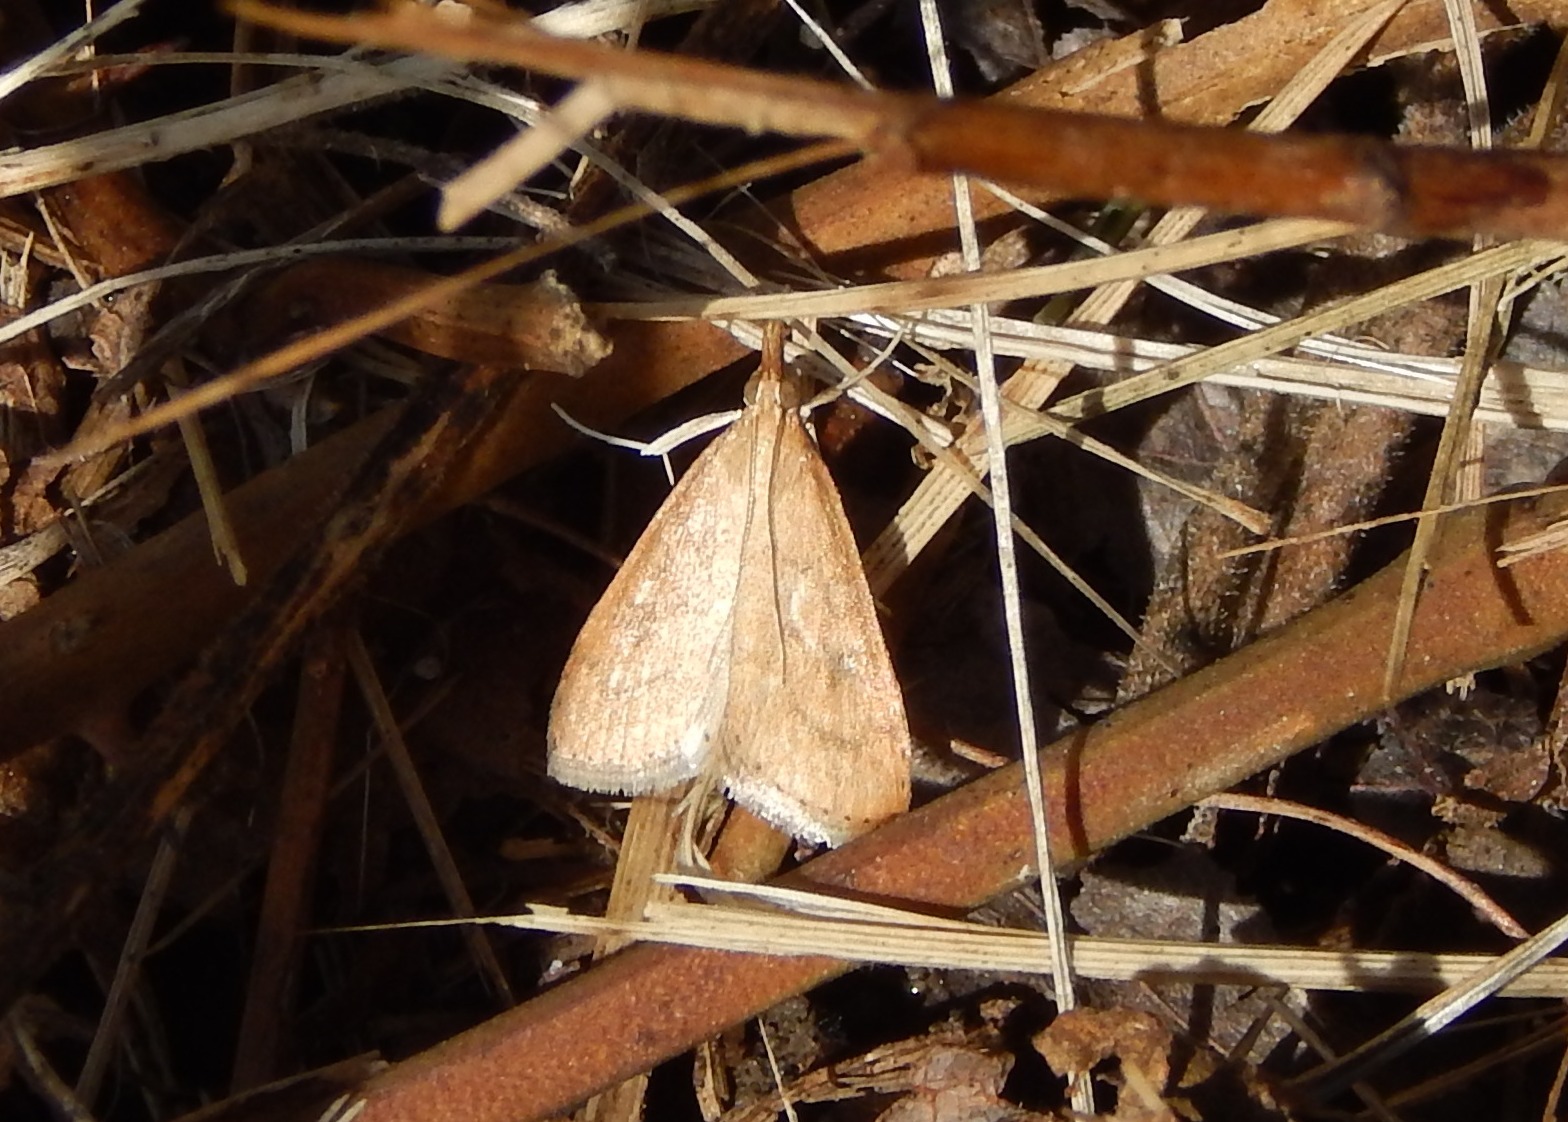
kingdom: Animalia
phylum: Arthropoda
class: Insecta
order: Lepidoptera
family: Crambidae
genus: Udea
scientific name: Udea rubigalis
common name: Celery leaftier moth
